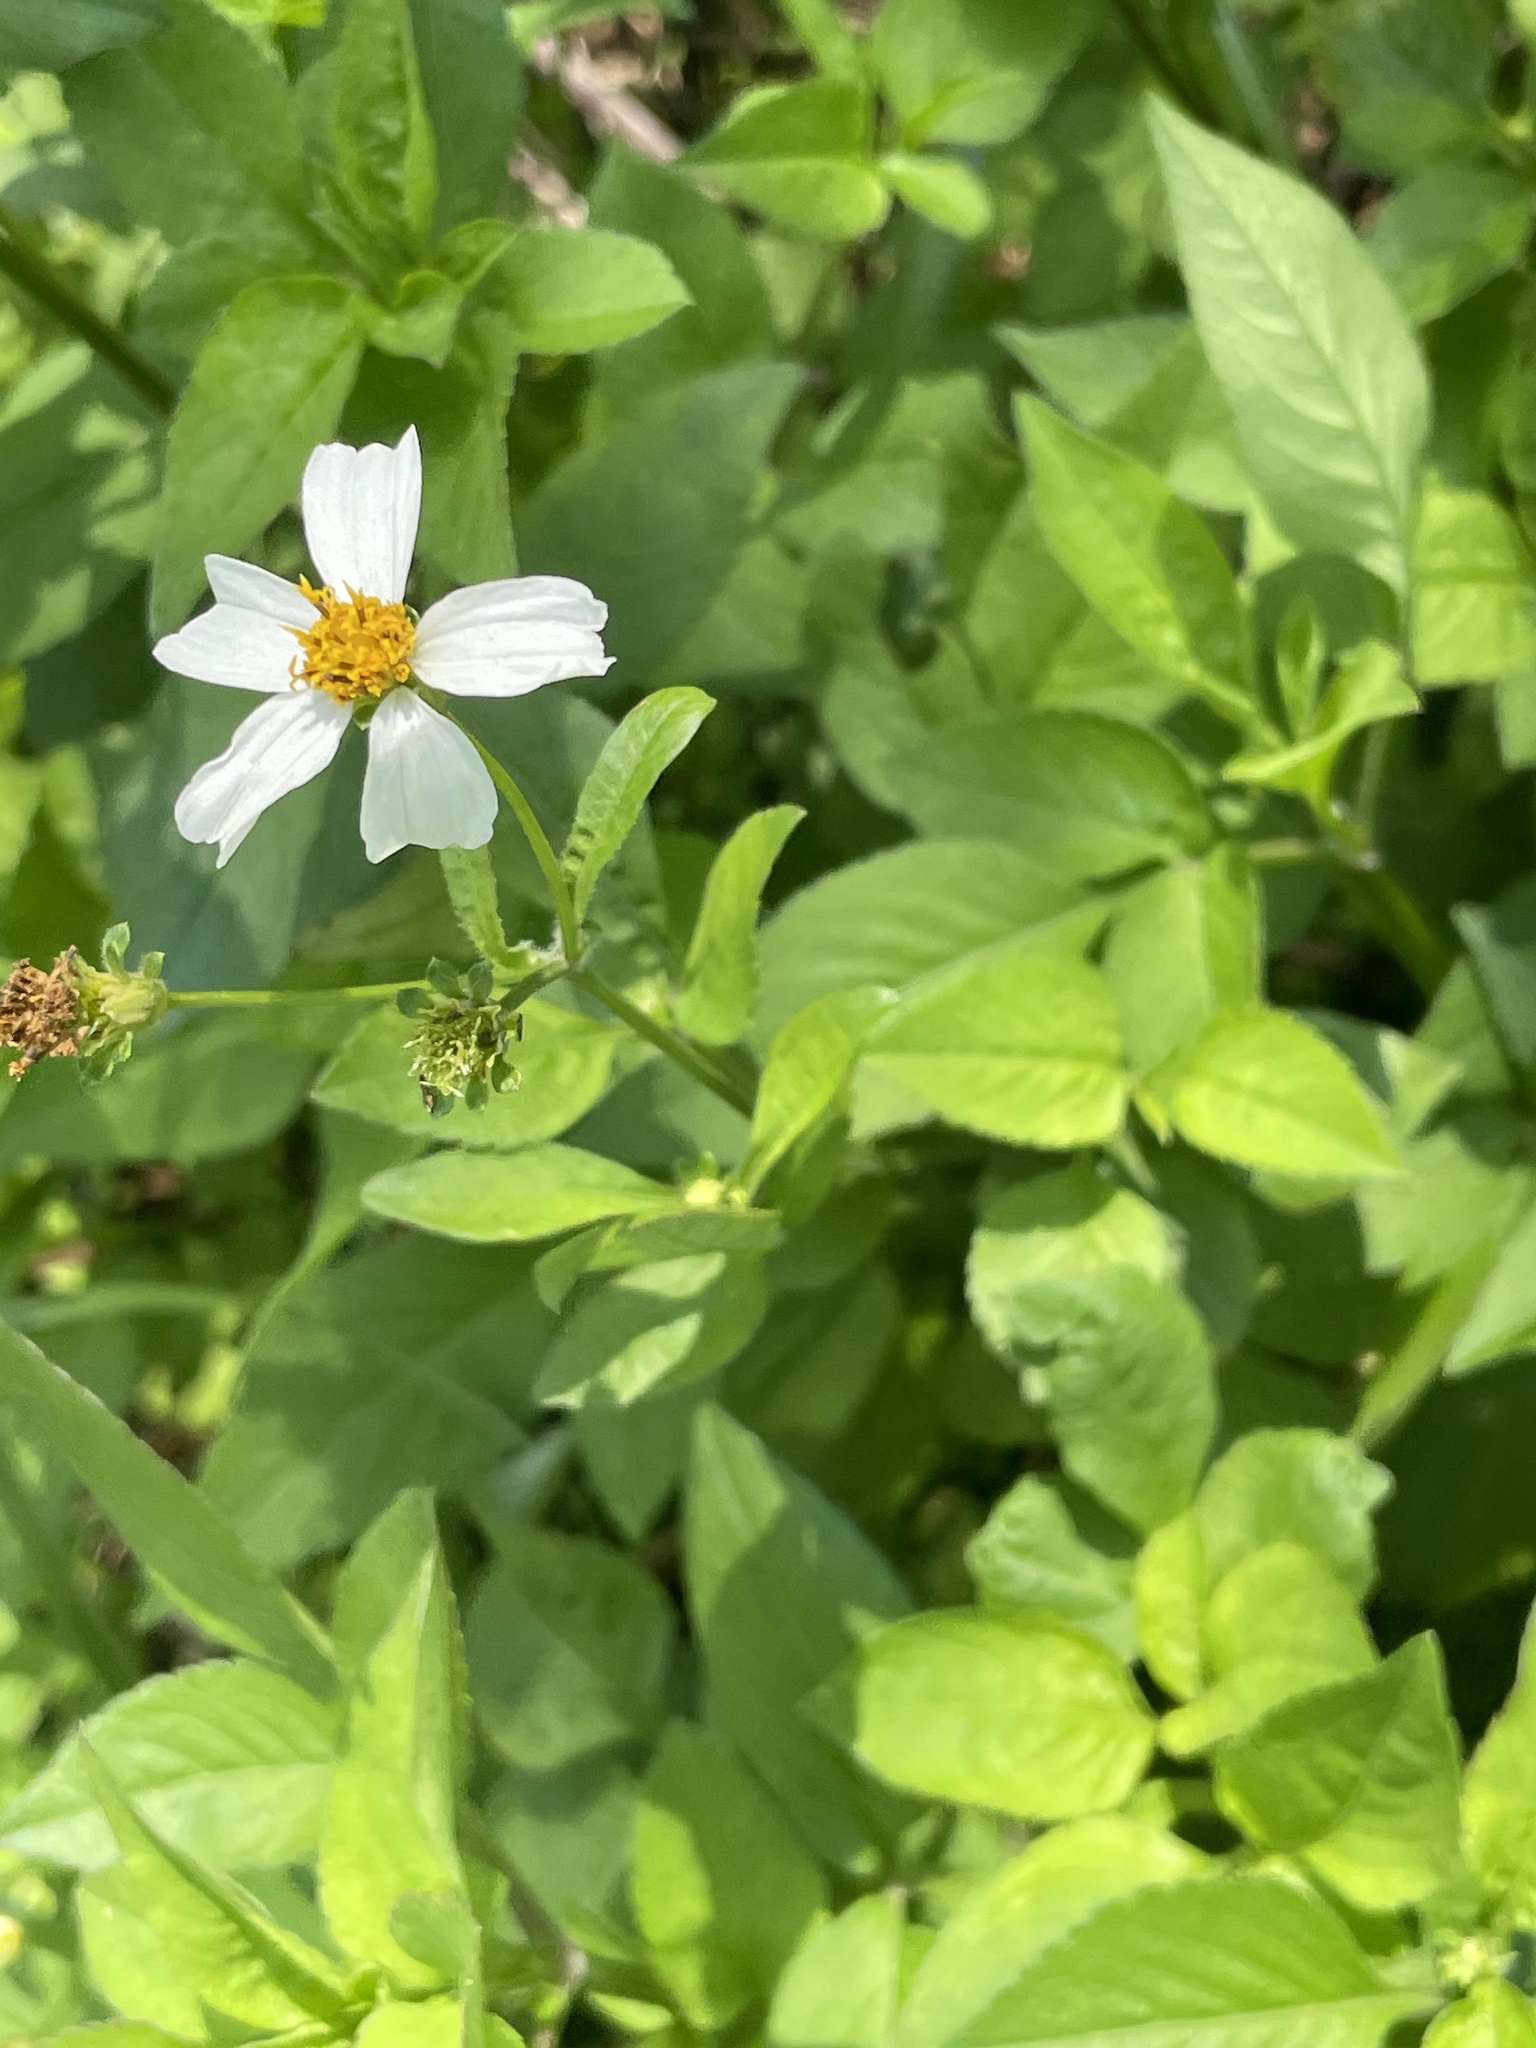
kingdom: Plantae
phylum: Tracheophyta
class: Magnoliopsida
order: Asterales
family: Asteraceae
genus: Bidens
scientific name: Bidens alba
